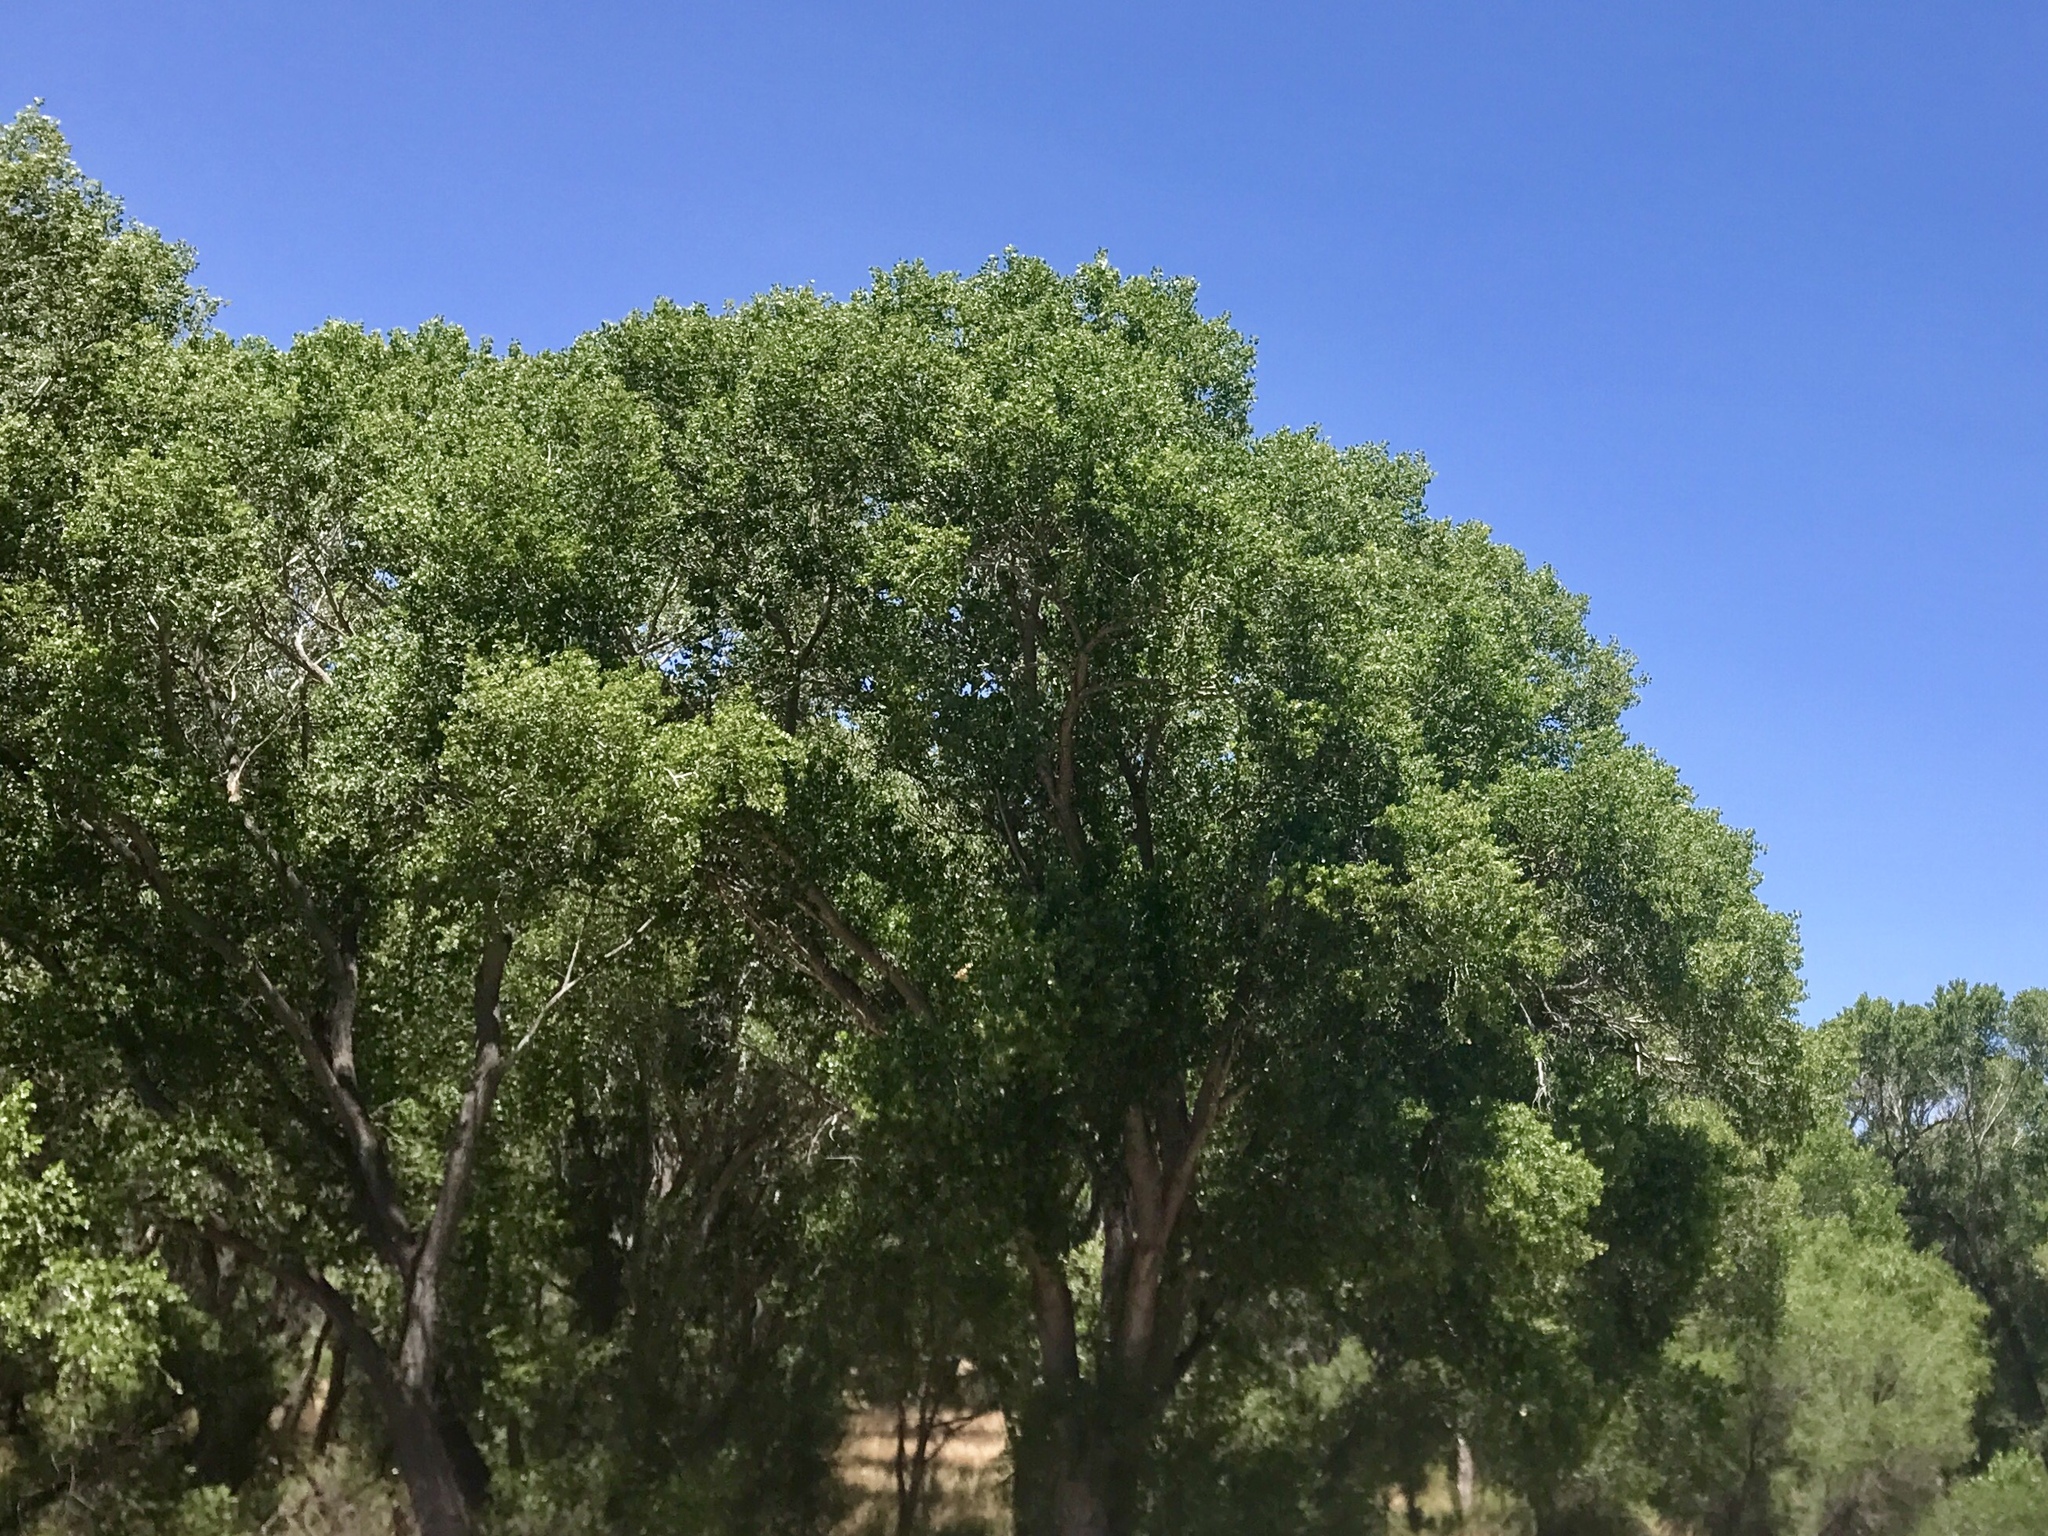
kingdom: Plantae
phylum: Tracheophyta
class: Magnoliopsida
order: Malpighiales
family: Salicaceae
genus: Populus
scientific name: Populus fremontii
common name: Fremont's cottonwood
